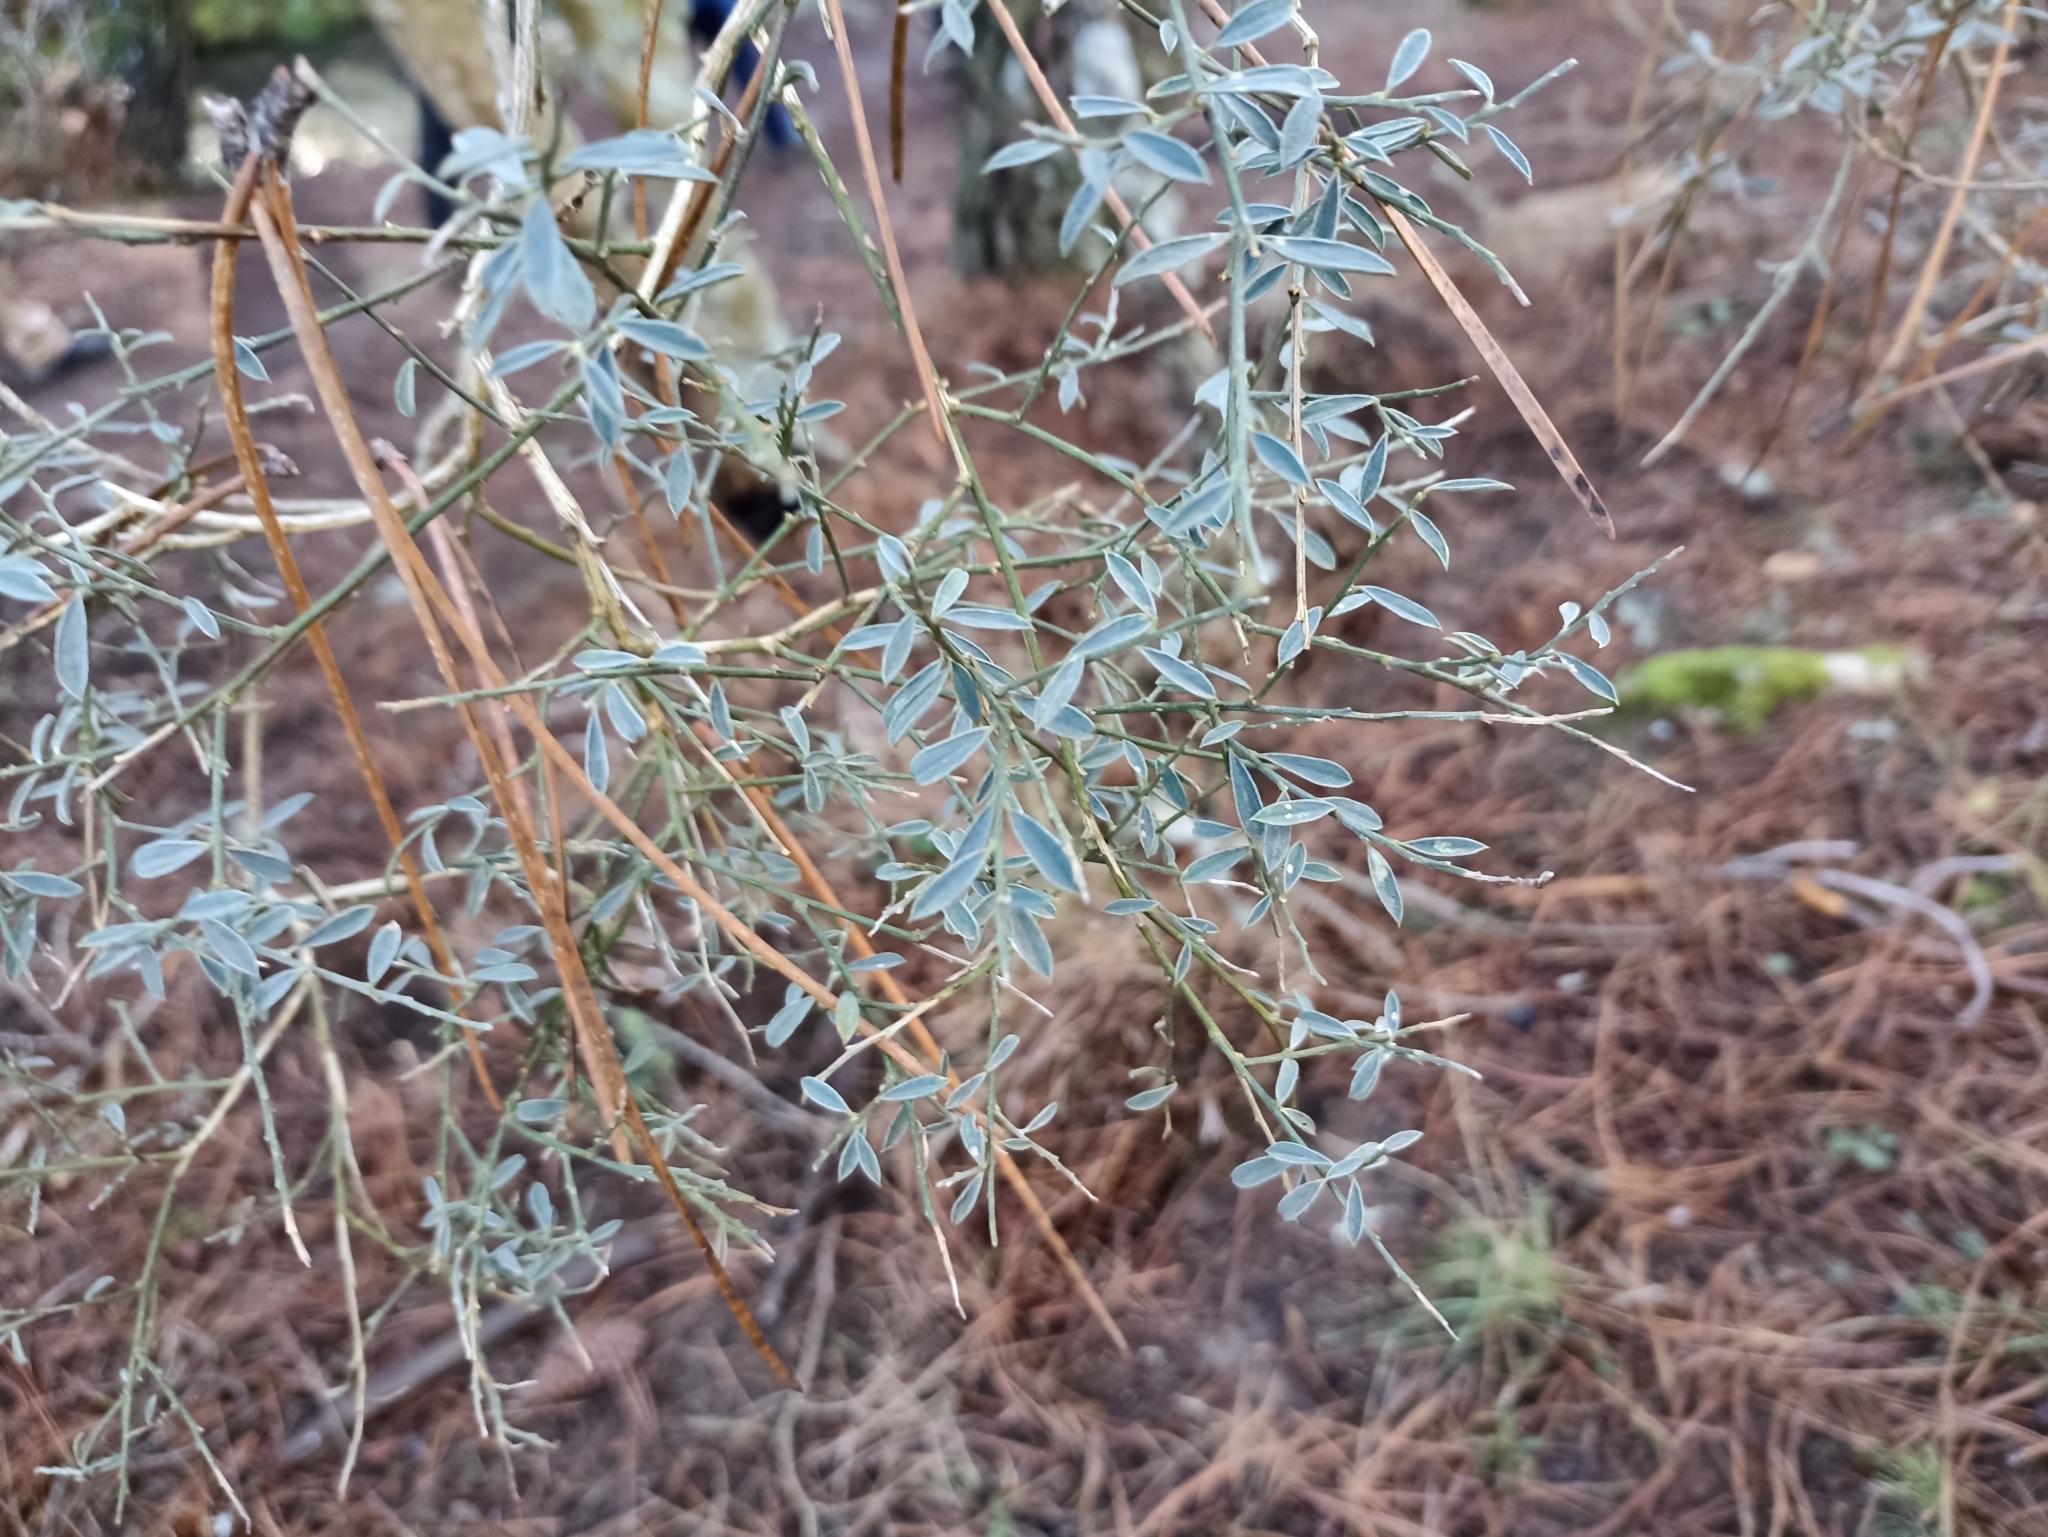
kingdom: Plantae
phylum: Tracheophyta
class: Magnoliopsida
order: Fabales
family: Fabaceae
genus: Genista
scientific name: Genista florida
